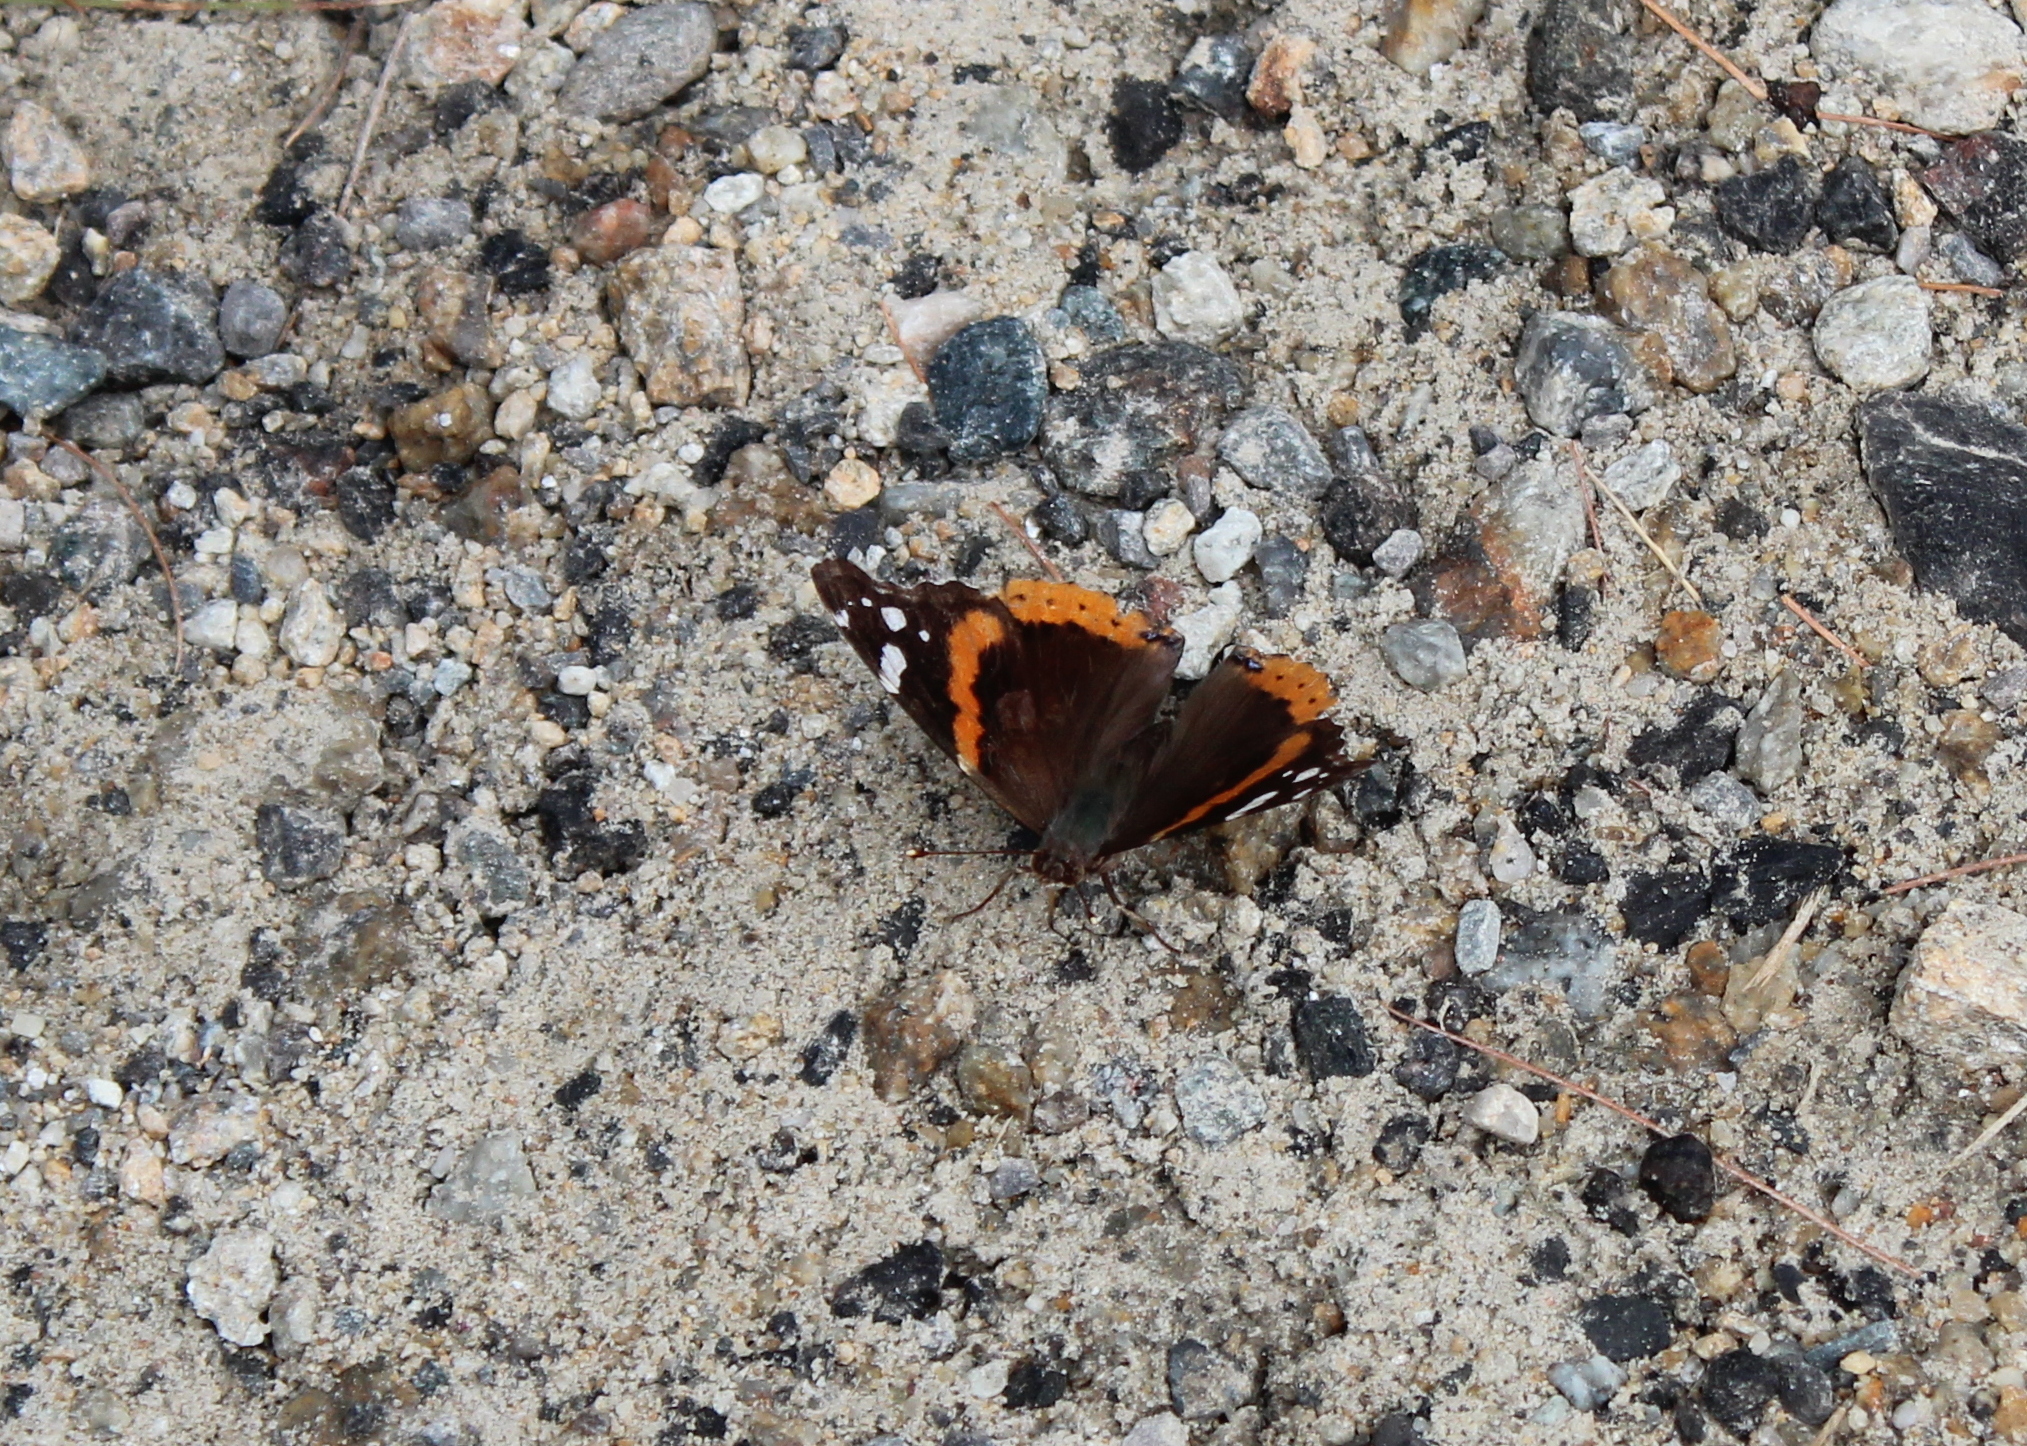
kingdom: Animalia
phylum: Arthropoda
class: Insecta
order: Lepidoptera
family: Nymphalidae
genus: Vanessa
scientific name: Vanessa atalanta
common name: Red admiral
